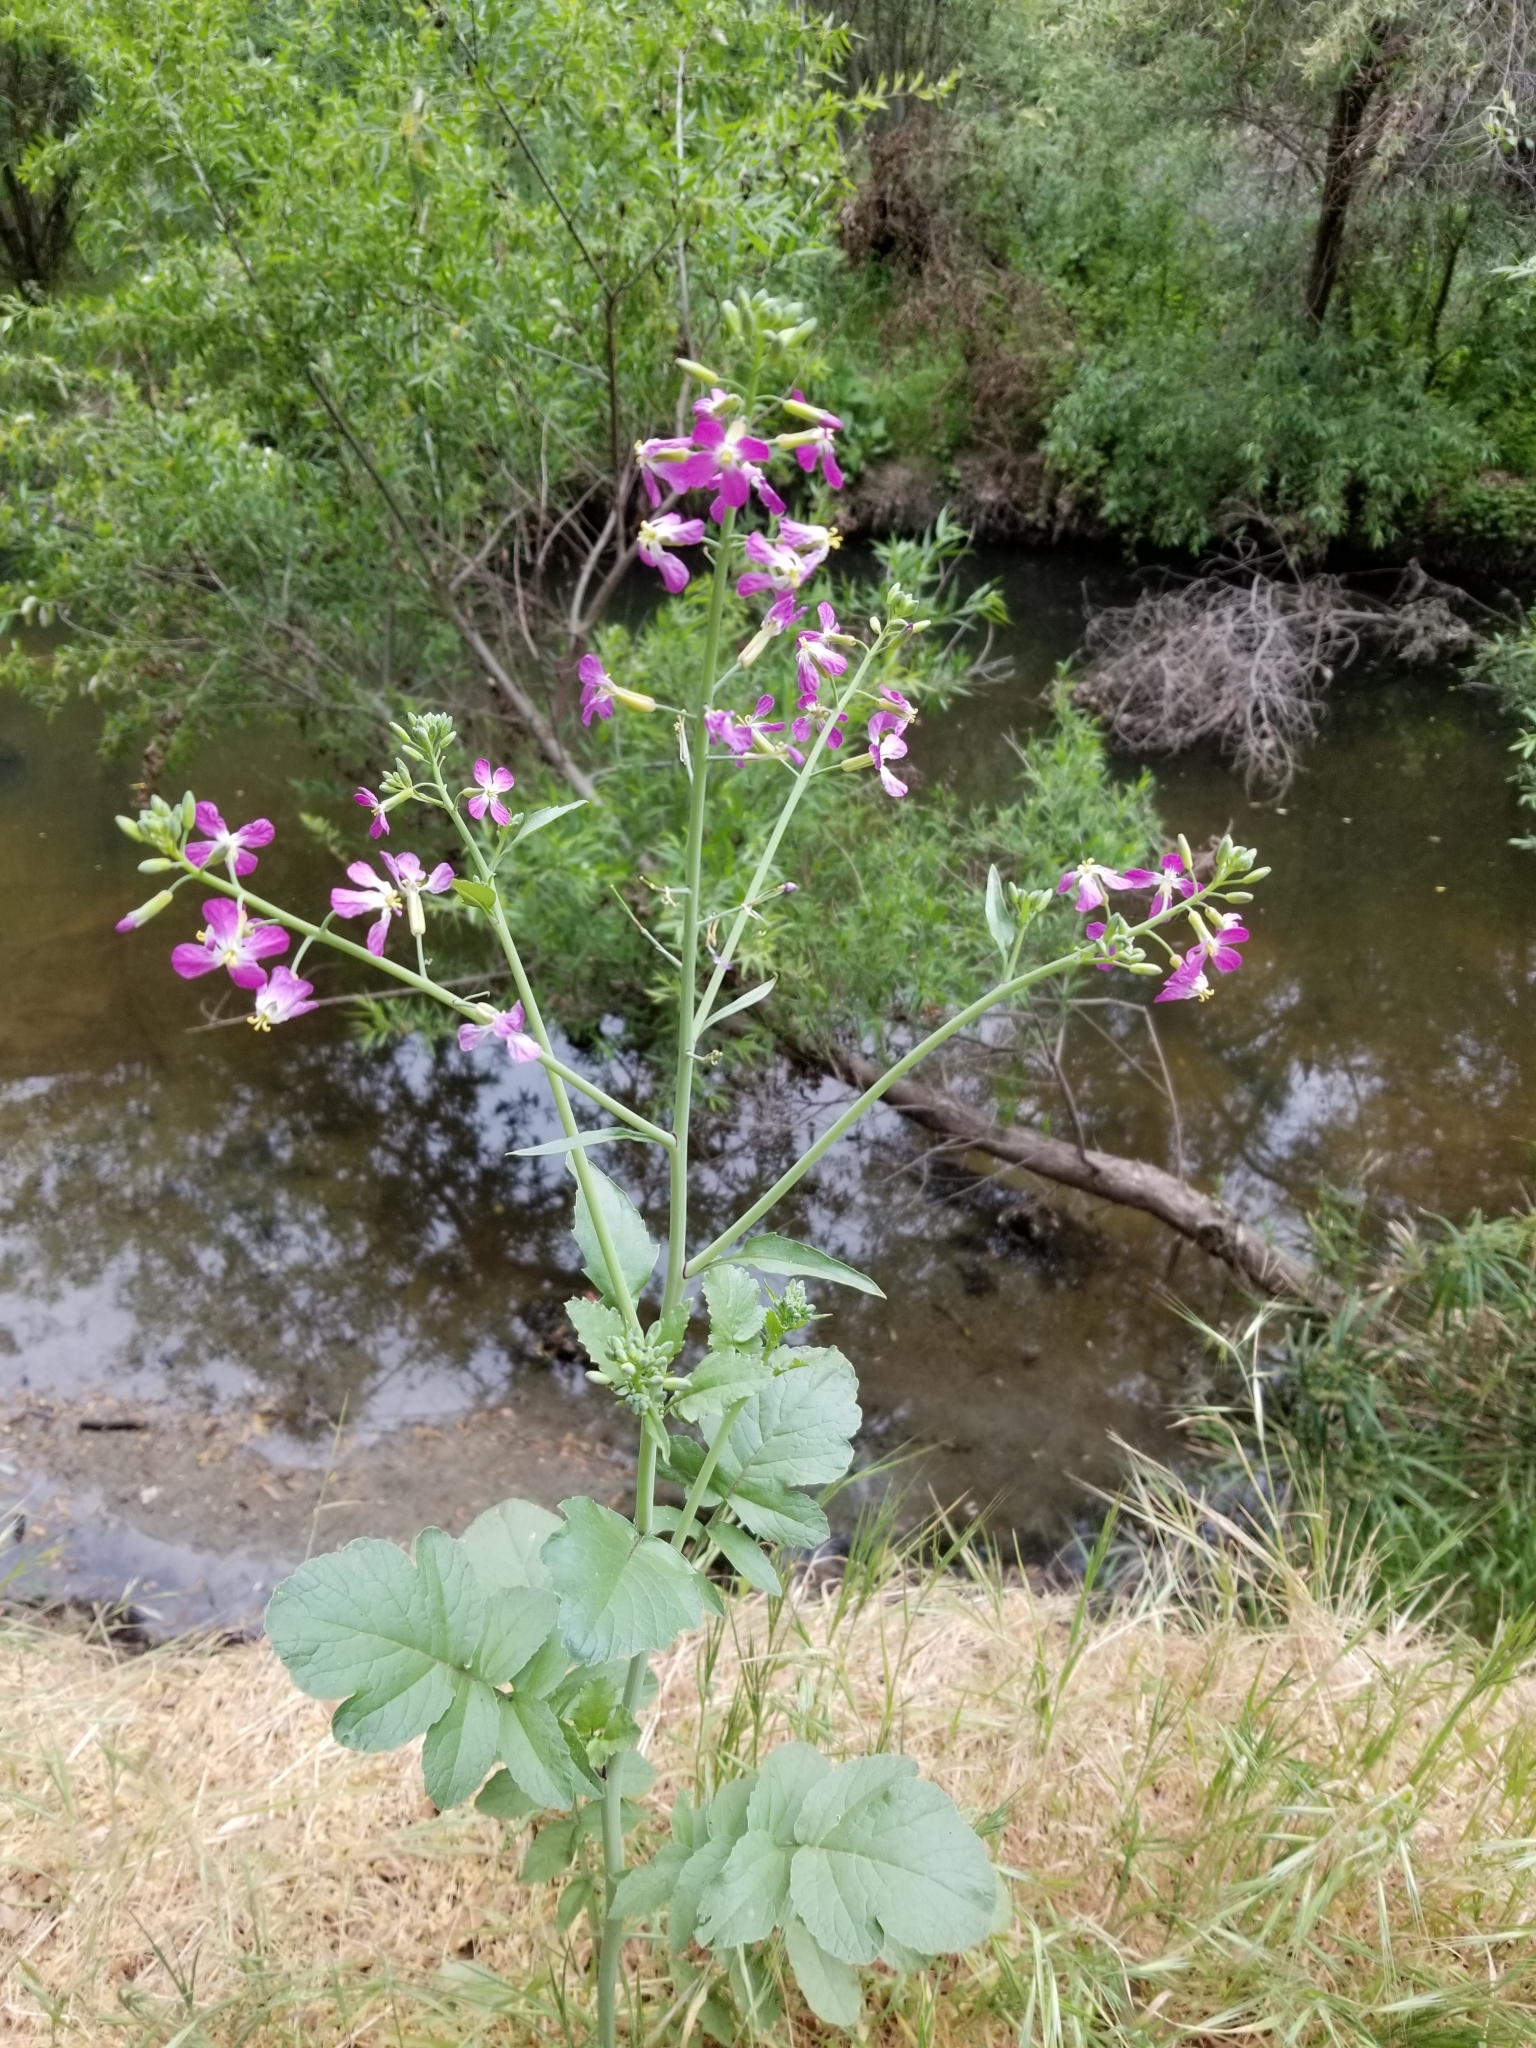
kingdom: Plantae
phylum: Tracheophyta
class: Magnoliopsida
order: Brassicales
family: Brassicaceae
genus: Raphanus
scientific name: Raphanus sativus
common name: Cultivated radish
